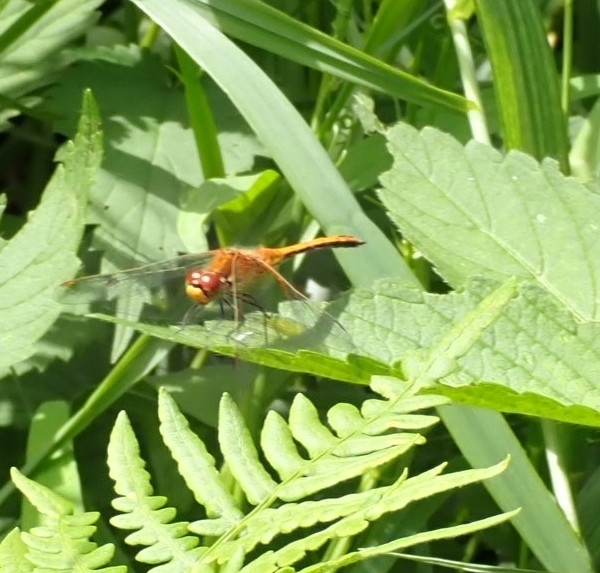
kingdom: Animalia
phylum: Arthropoda
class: Insecta
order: Odonata
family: Libellulidae
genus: Sympetrum
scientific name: Sympetrum flaveolum
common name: Yellow-winged darter
